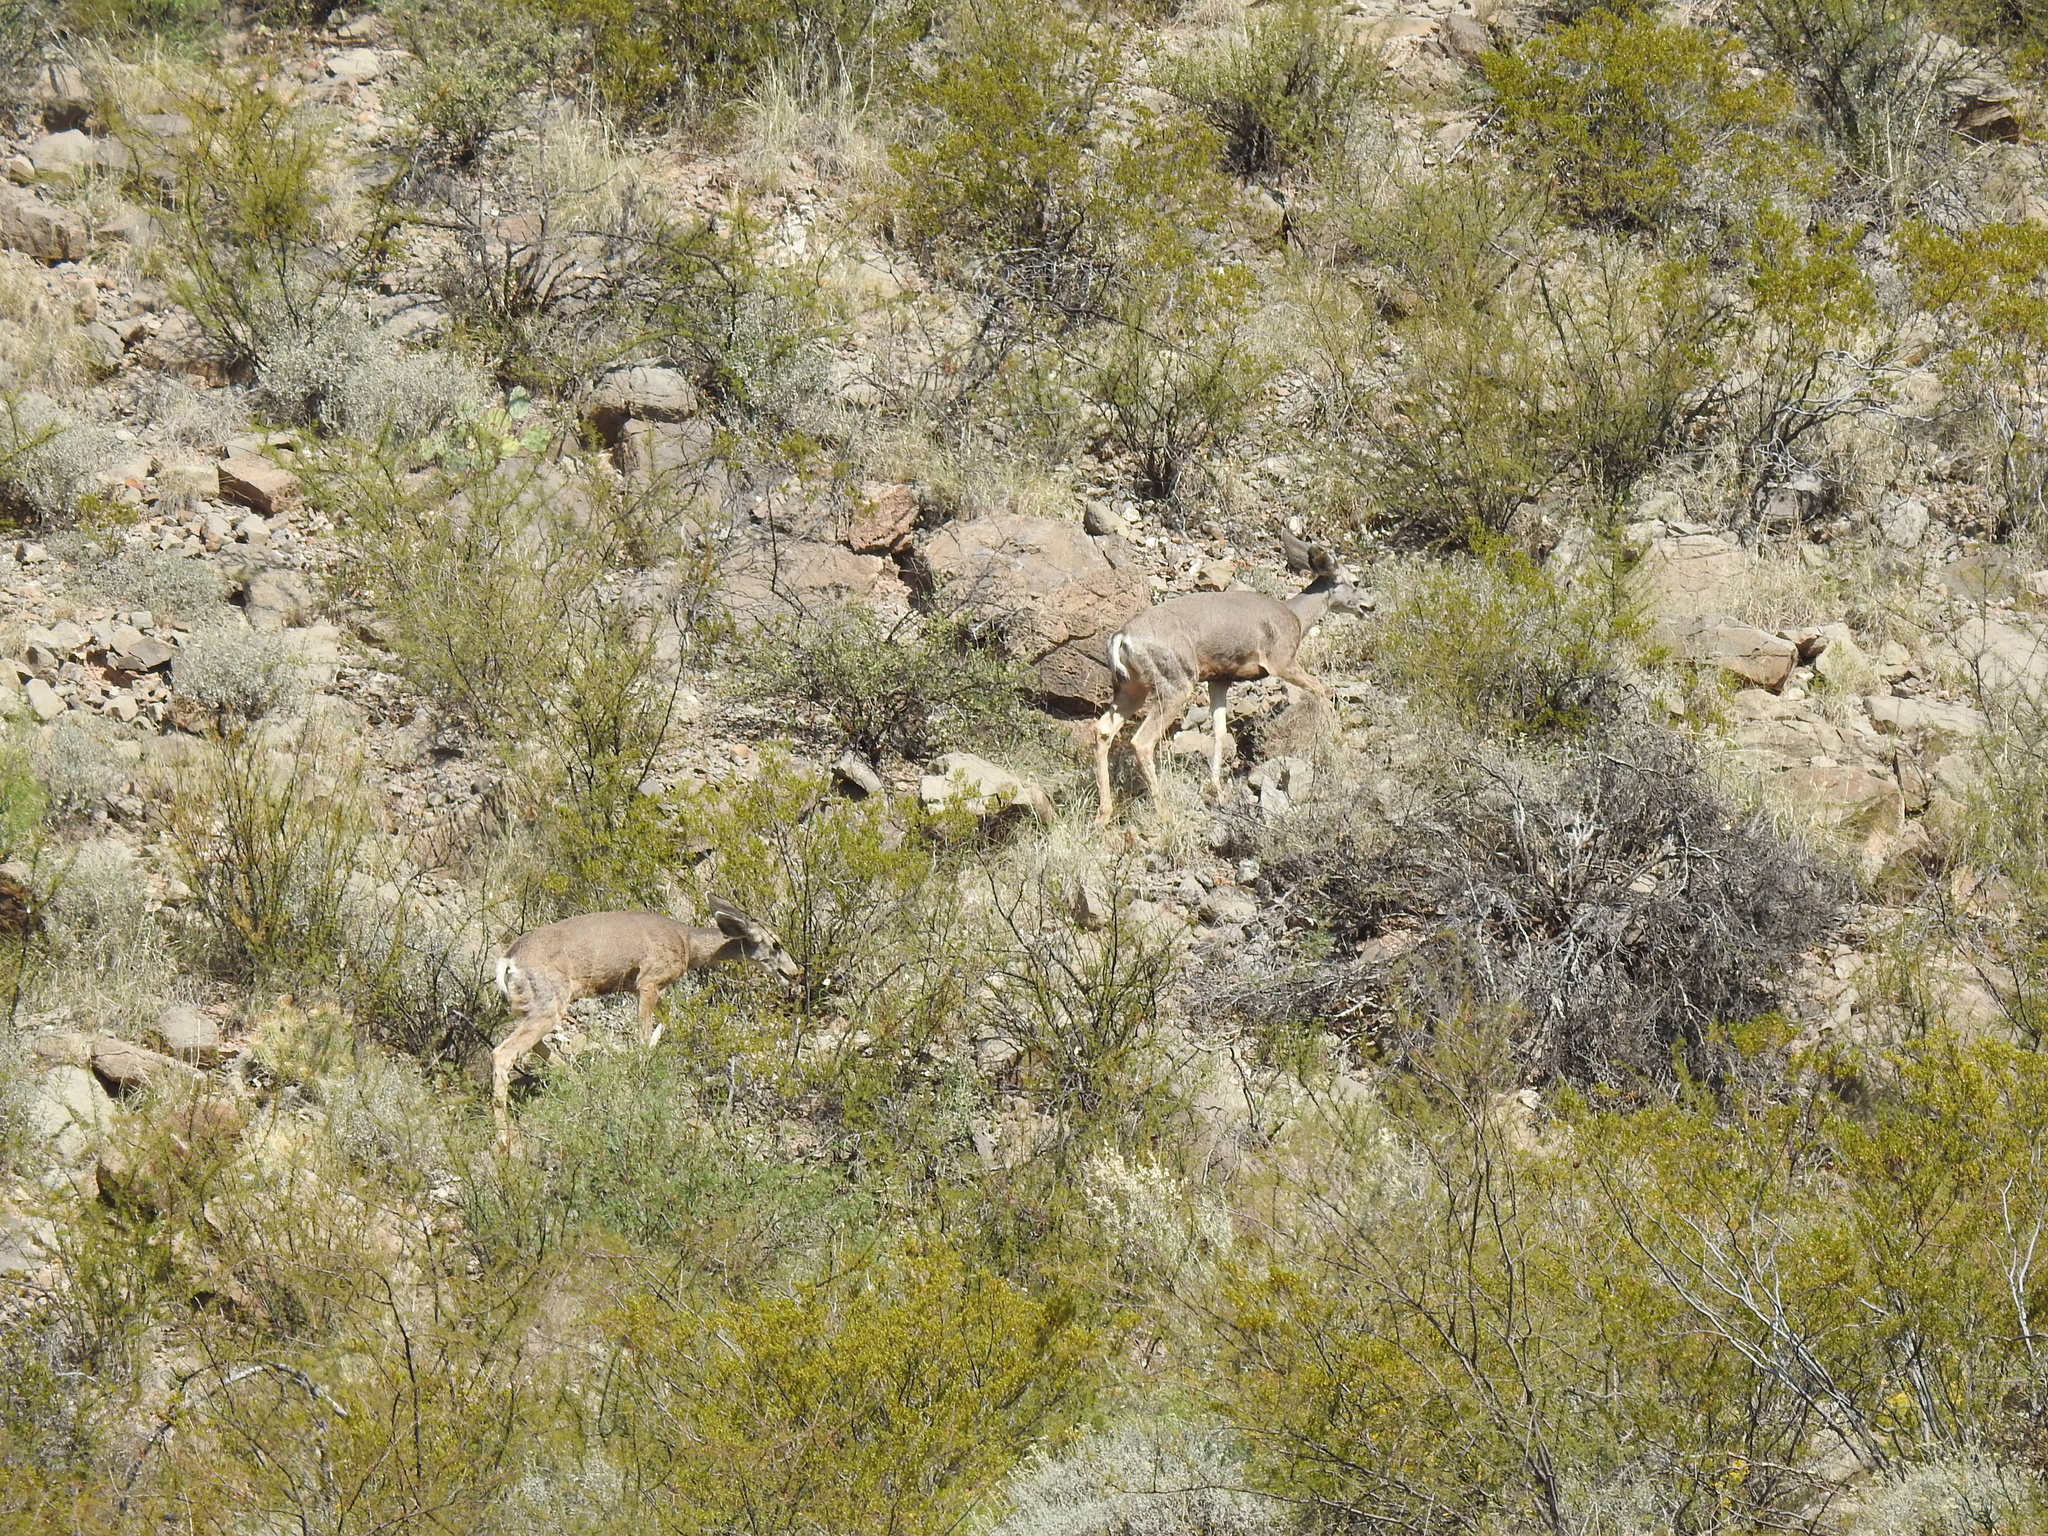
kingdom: Animalia
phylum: Chordata
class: Mammalia
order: Artiodactyla
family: Cervidae
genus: Odocoileus
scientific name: Odocoileus hemionus
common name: Mule deer
